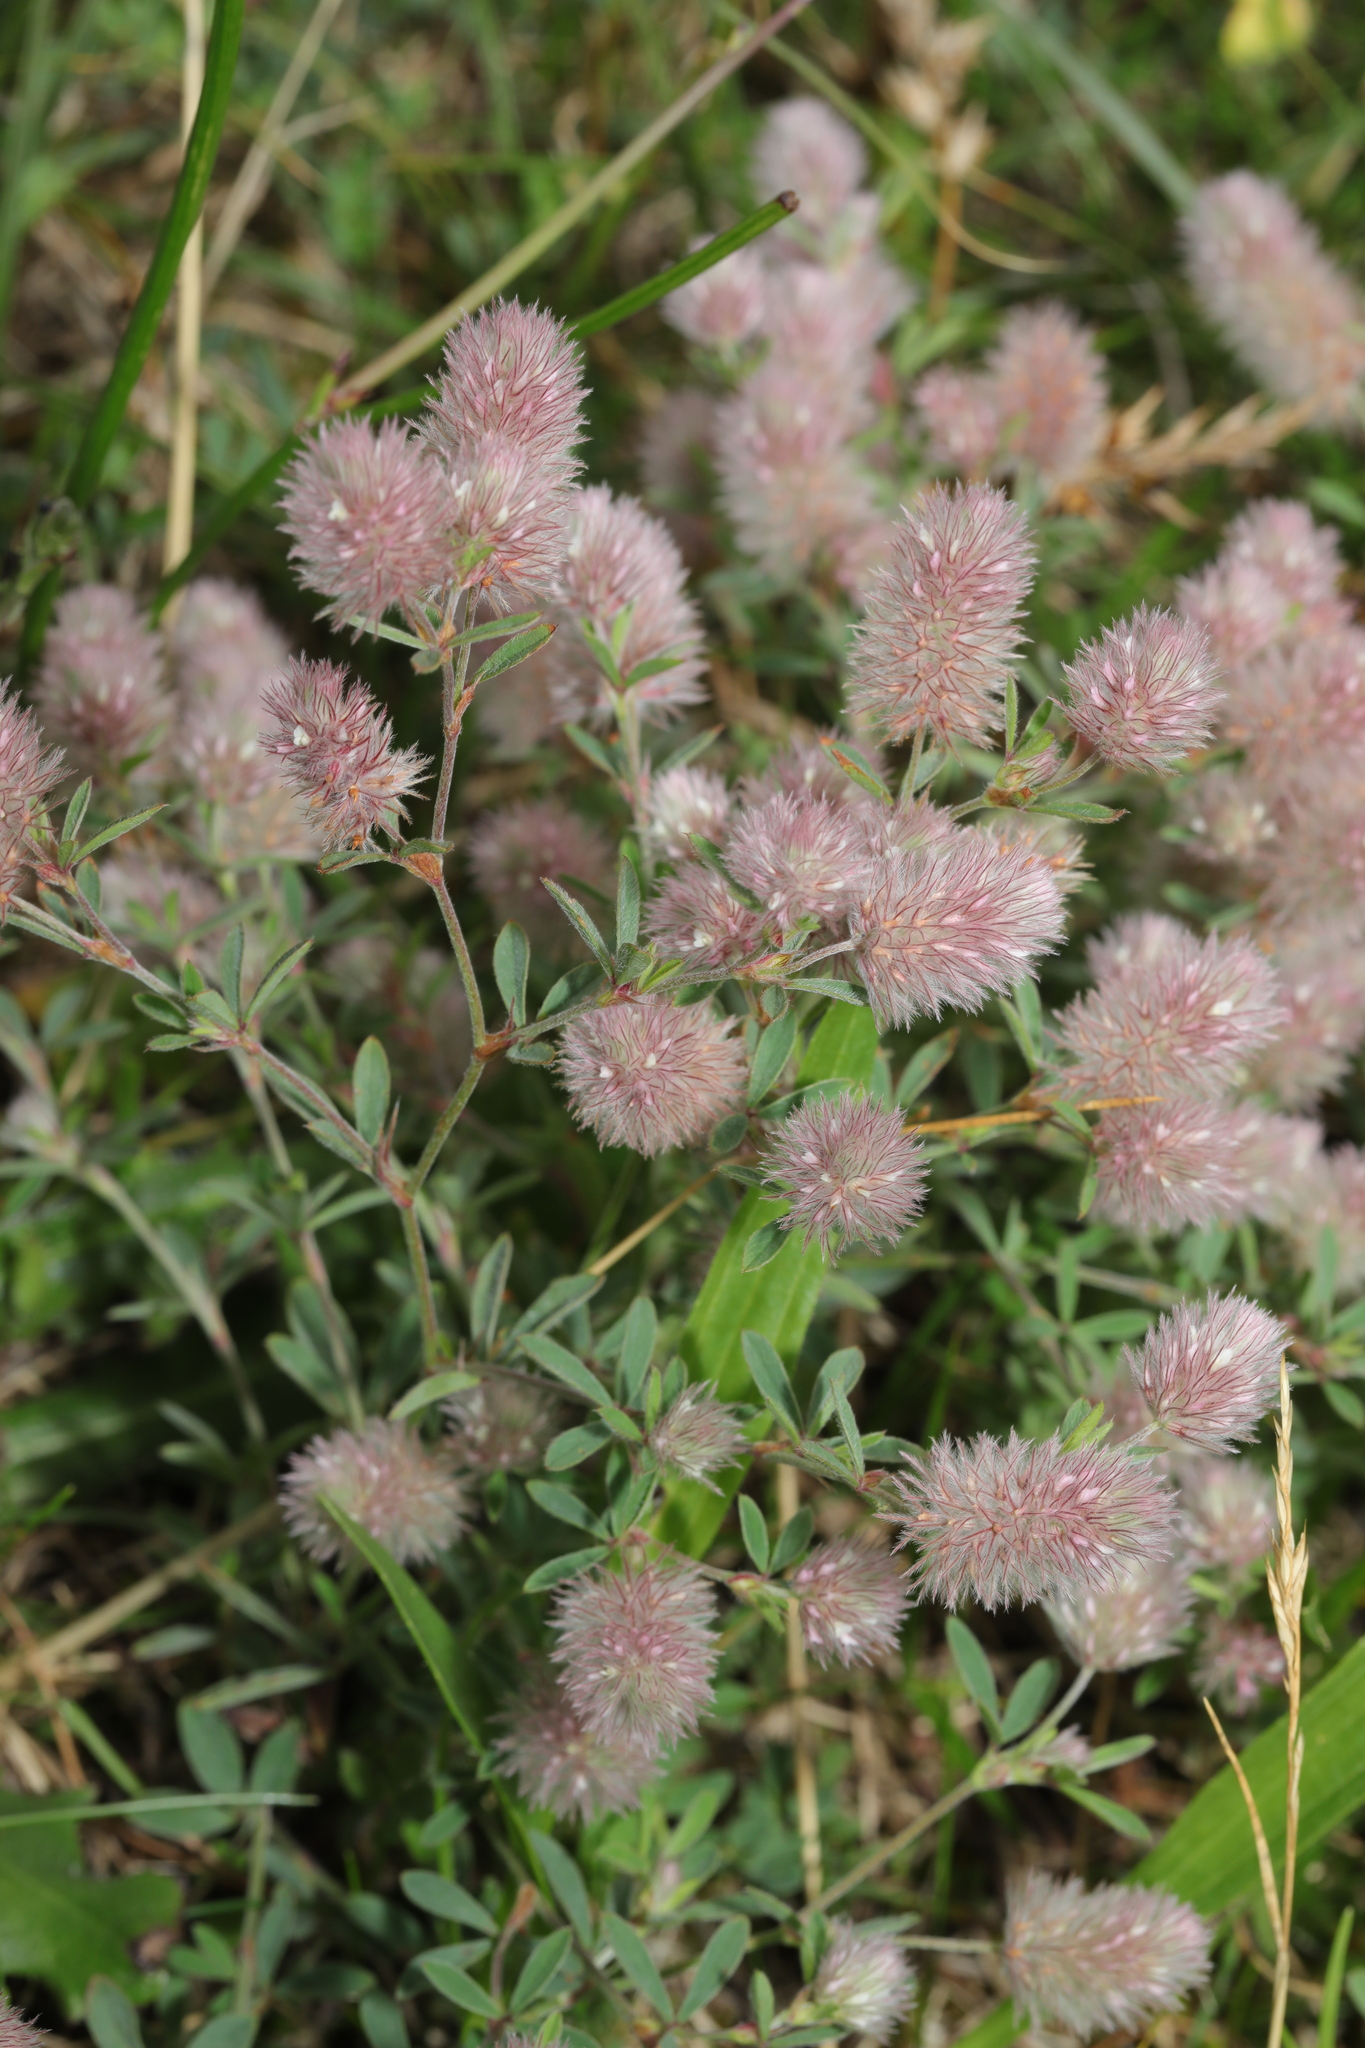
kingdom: Plantae
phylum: Tracheophyta
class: Magnoliopsida
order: Fabales
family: Fabaceae
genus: Trifolium
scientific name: Trifolium arvense
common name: Hare's-foot clover
